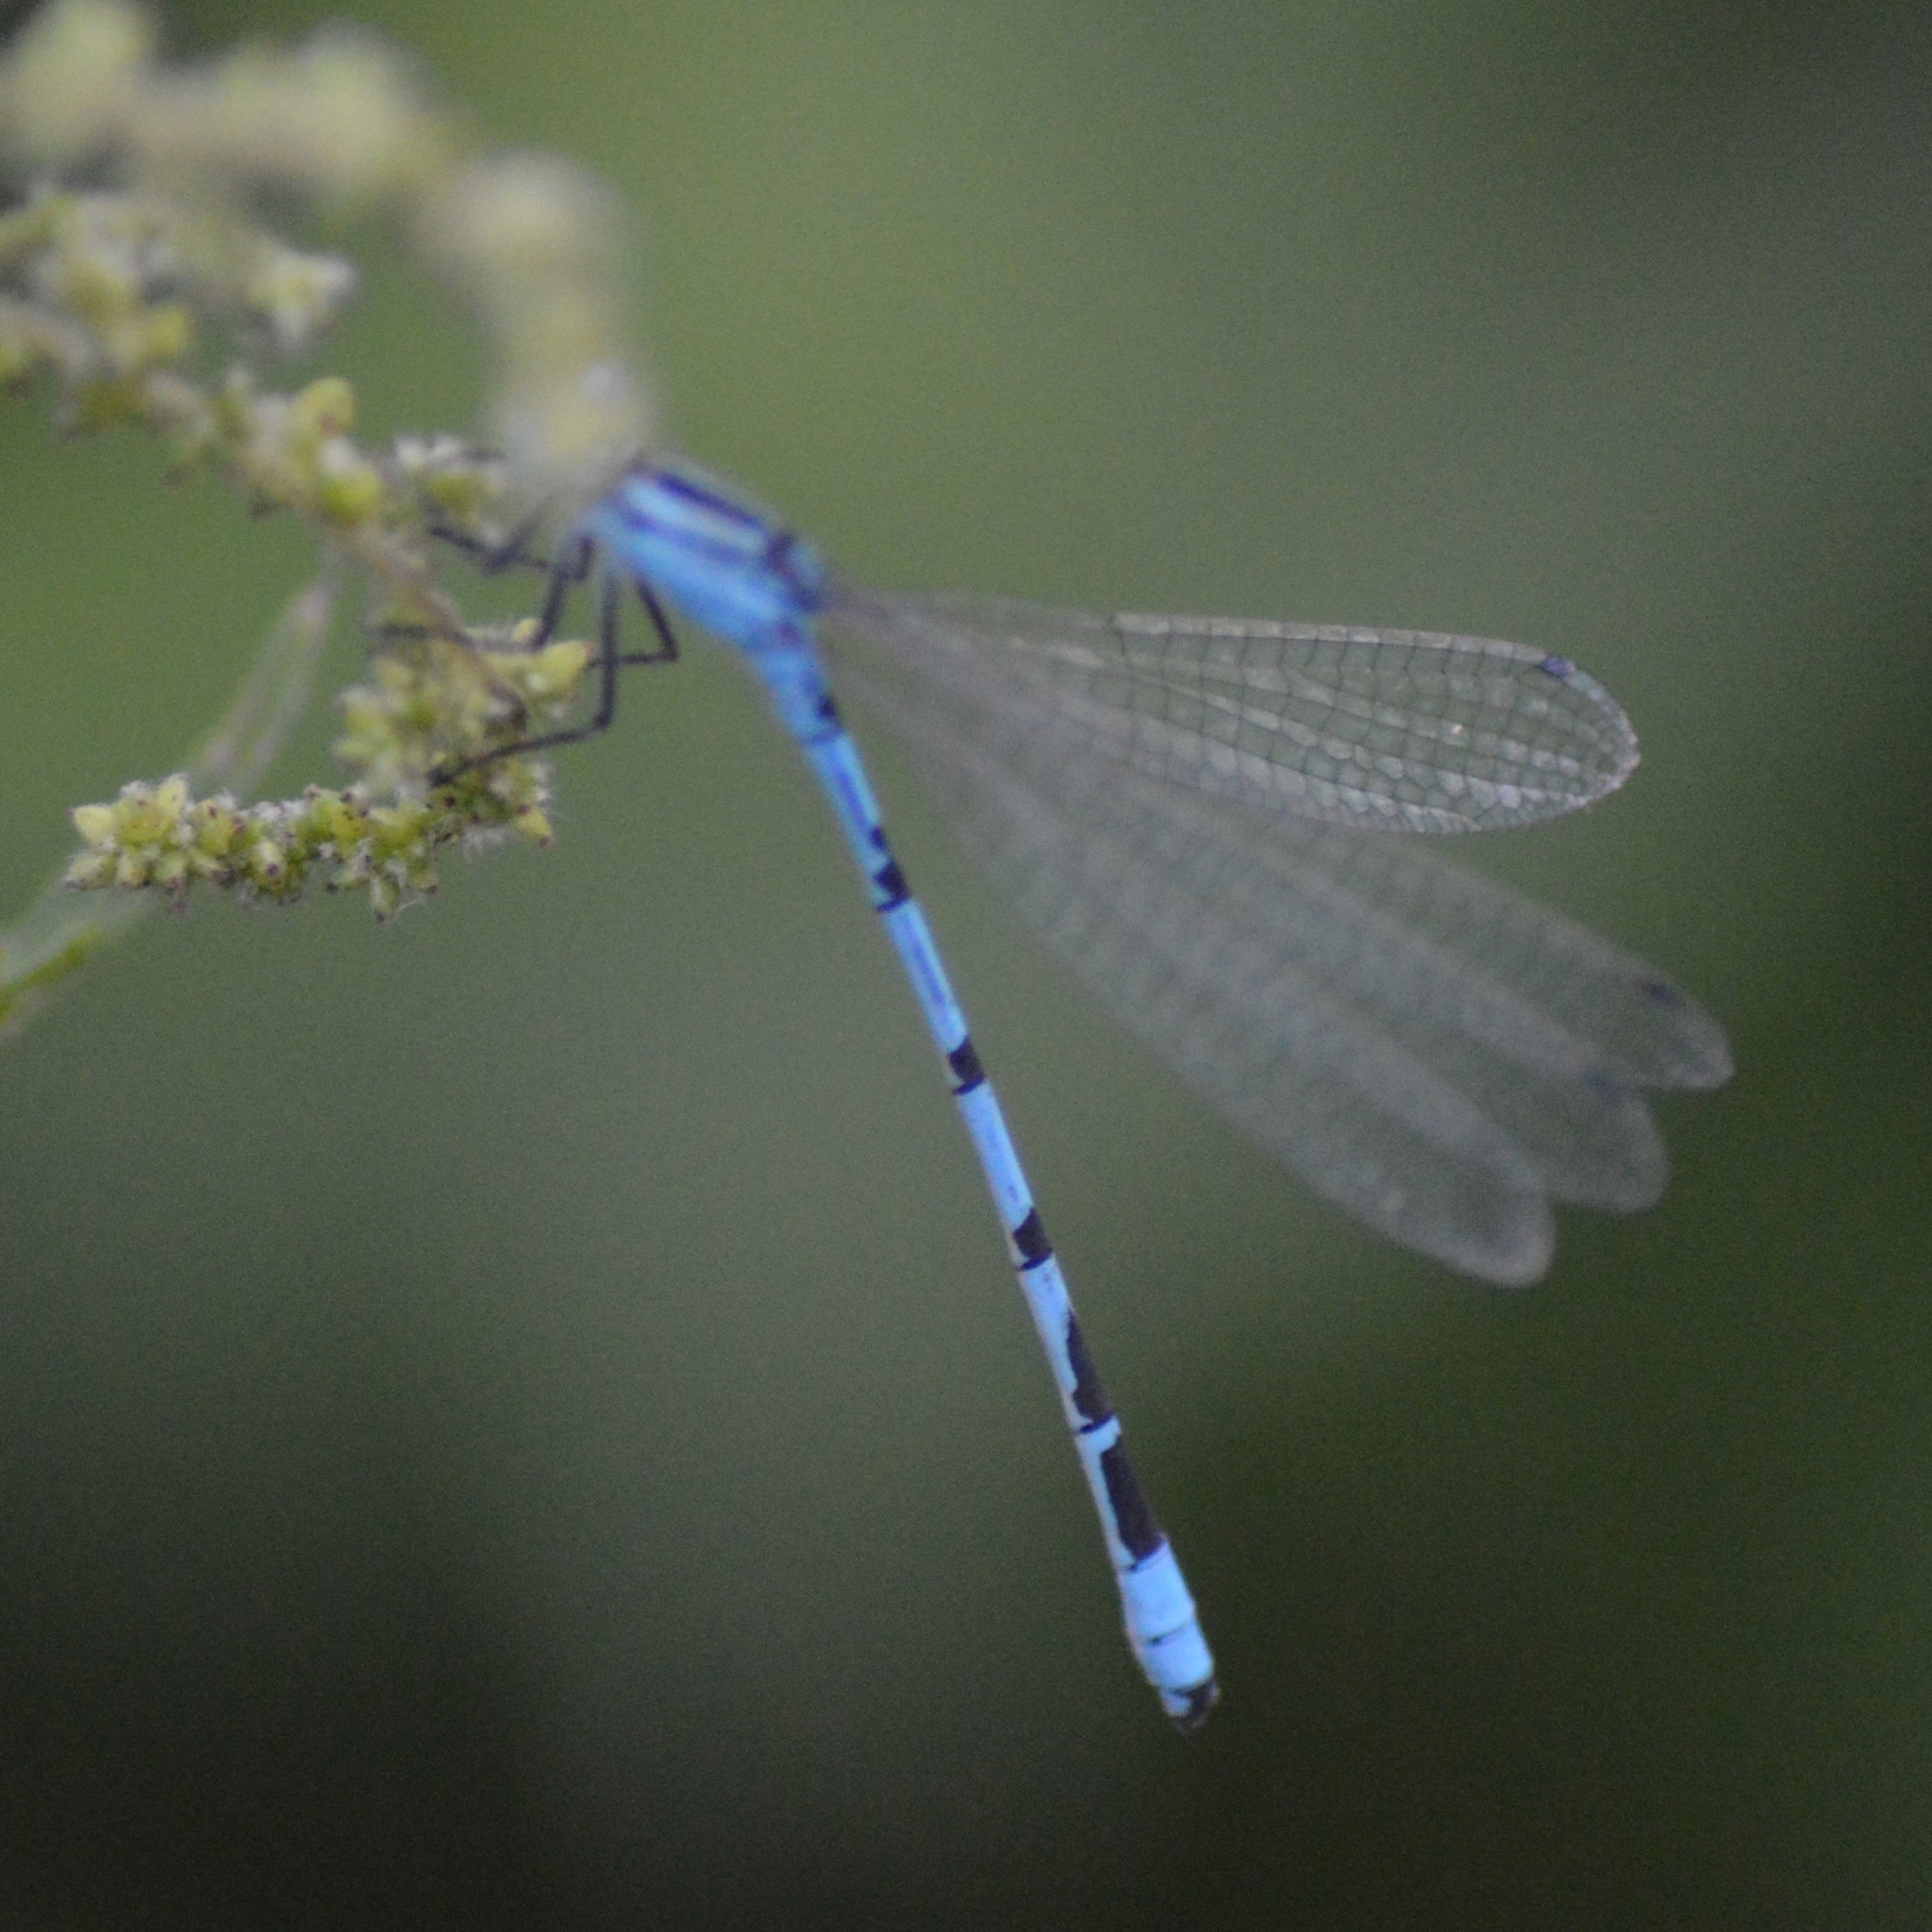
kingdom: Animalia
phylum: Arthropoda
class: Insecta
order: Odonata
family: Coenagrionidae
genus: Enallagma
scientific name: Enallagma cyathigerum
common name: Common blue damselfly
